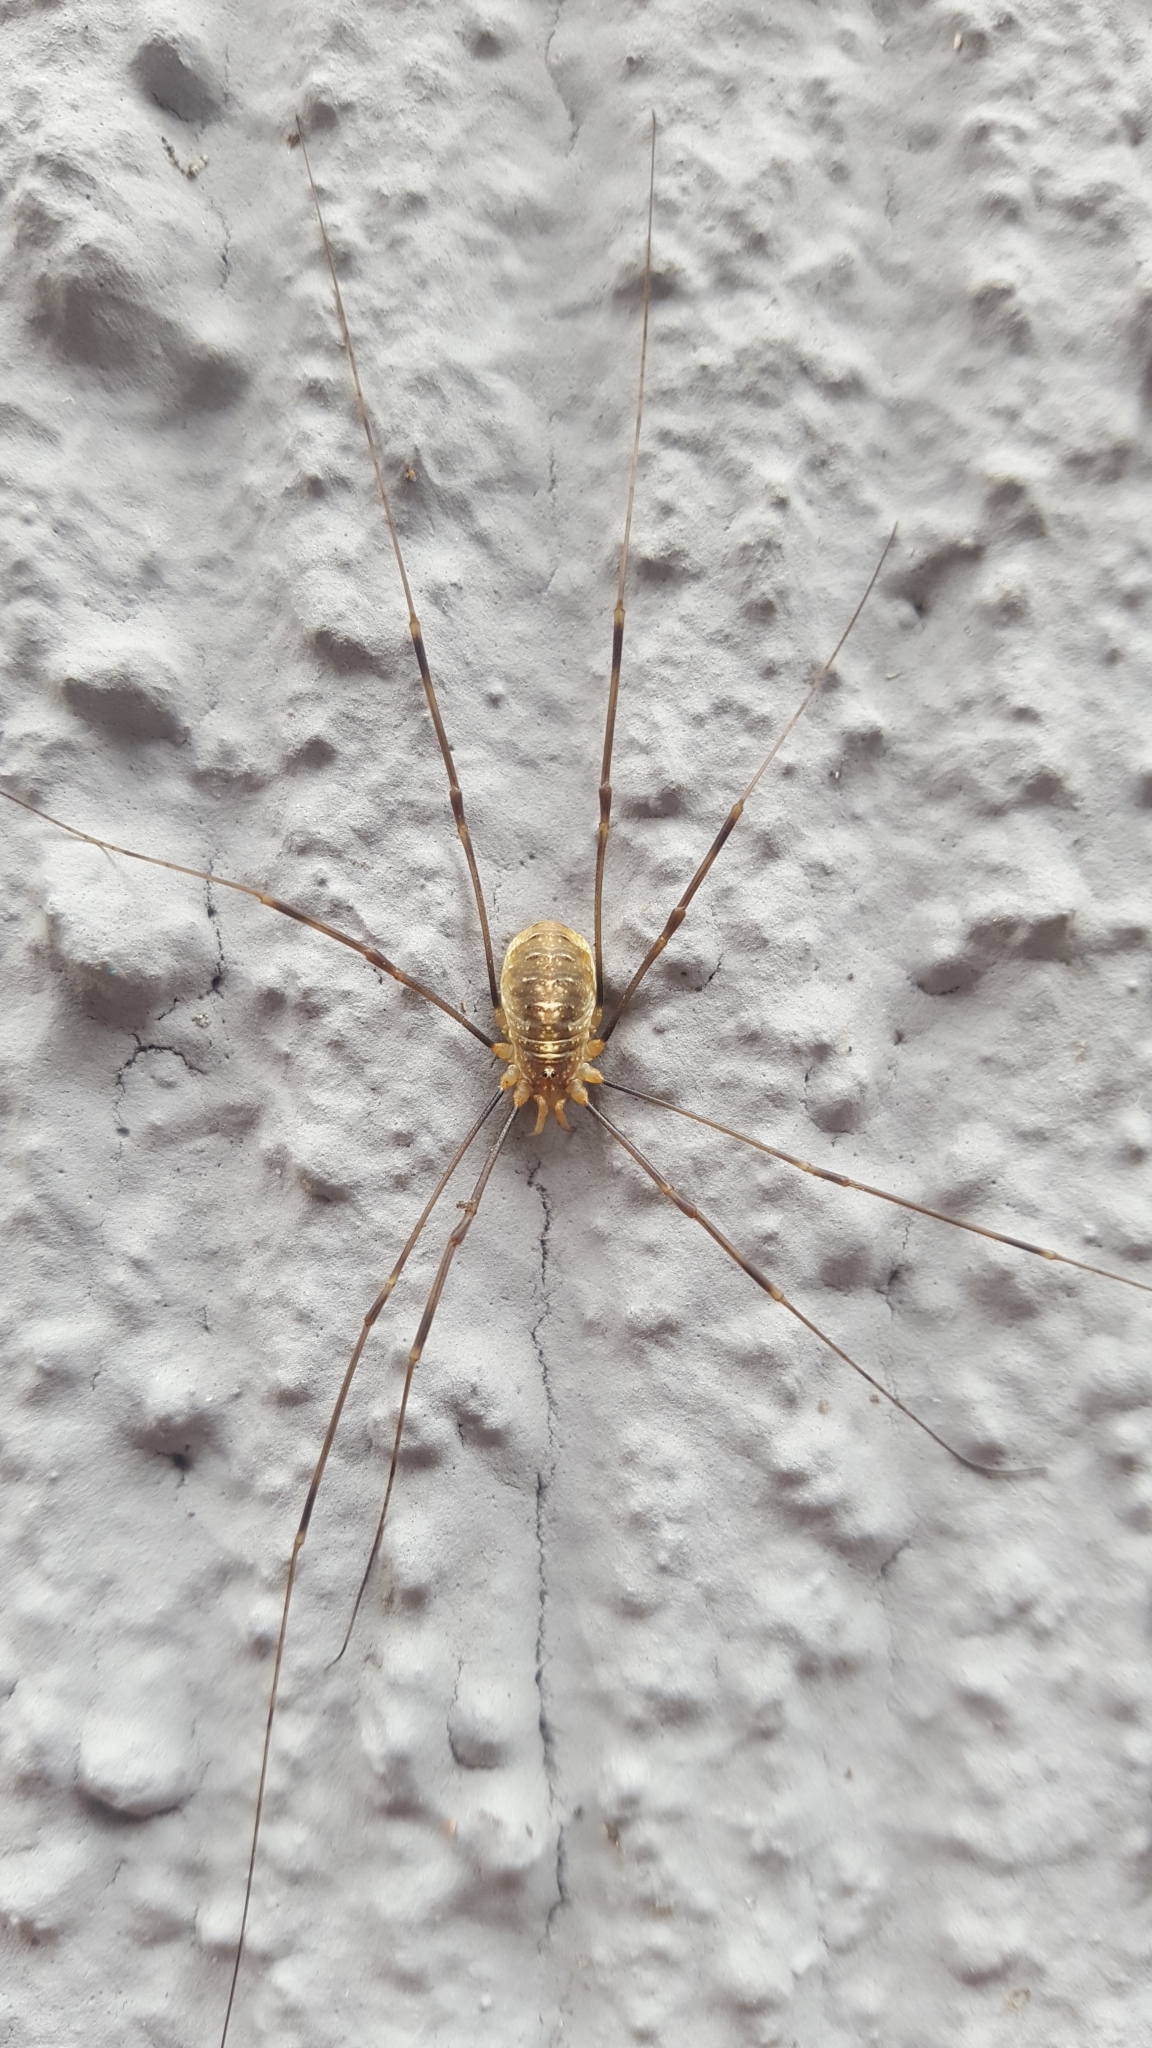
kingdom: Animalia
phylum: Arthropoda
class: Arachnida
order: Opiliones
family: Phalangiidae
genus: Opilio
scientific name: Opilio canestrinii
